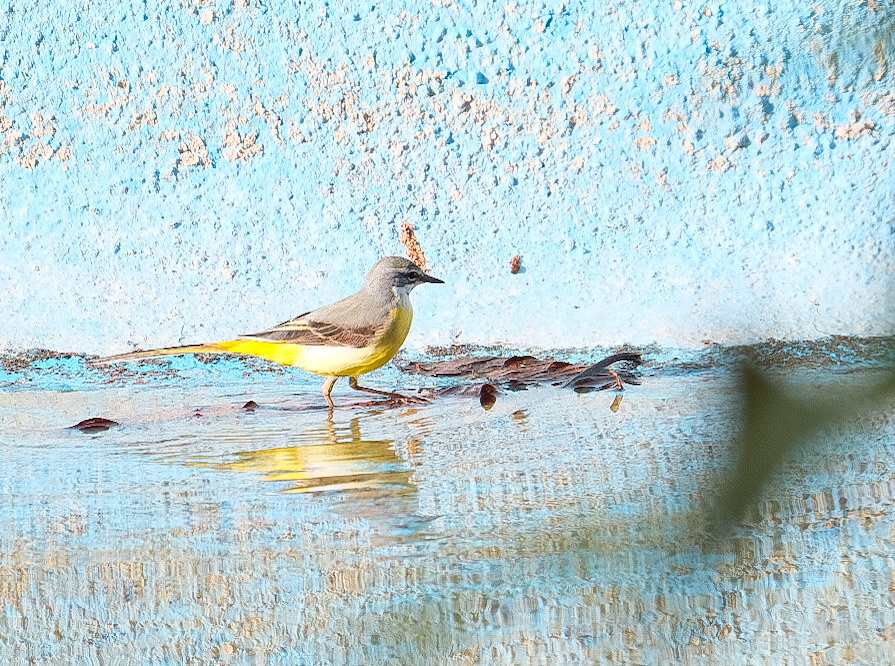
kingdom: Animalia
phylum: Chordata
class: Aves
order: Passeriformes
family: Motacillidae
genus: Motacilla
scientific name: Motacilla cinerea
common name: Grey wagtail
